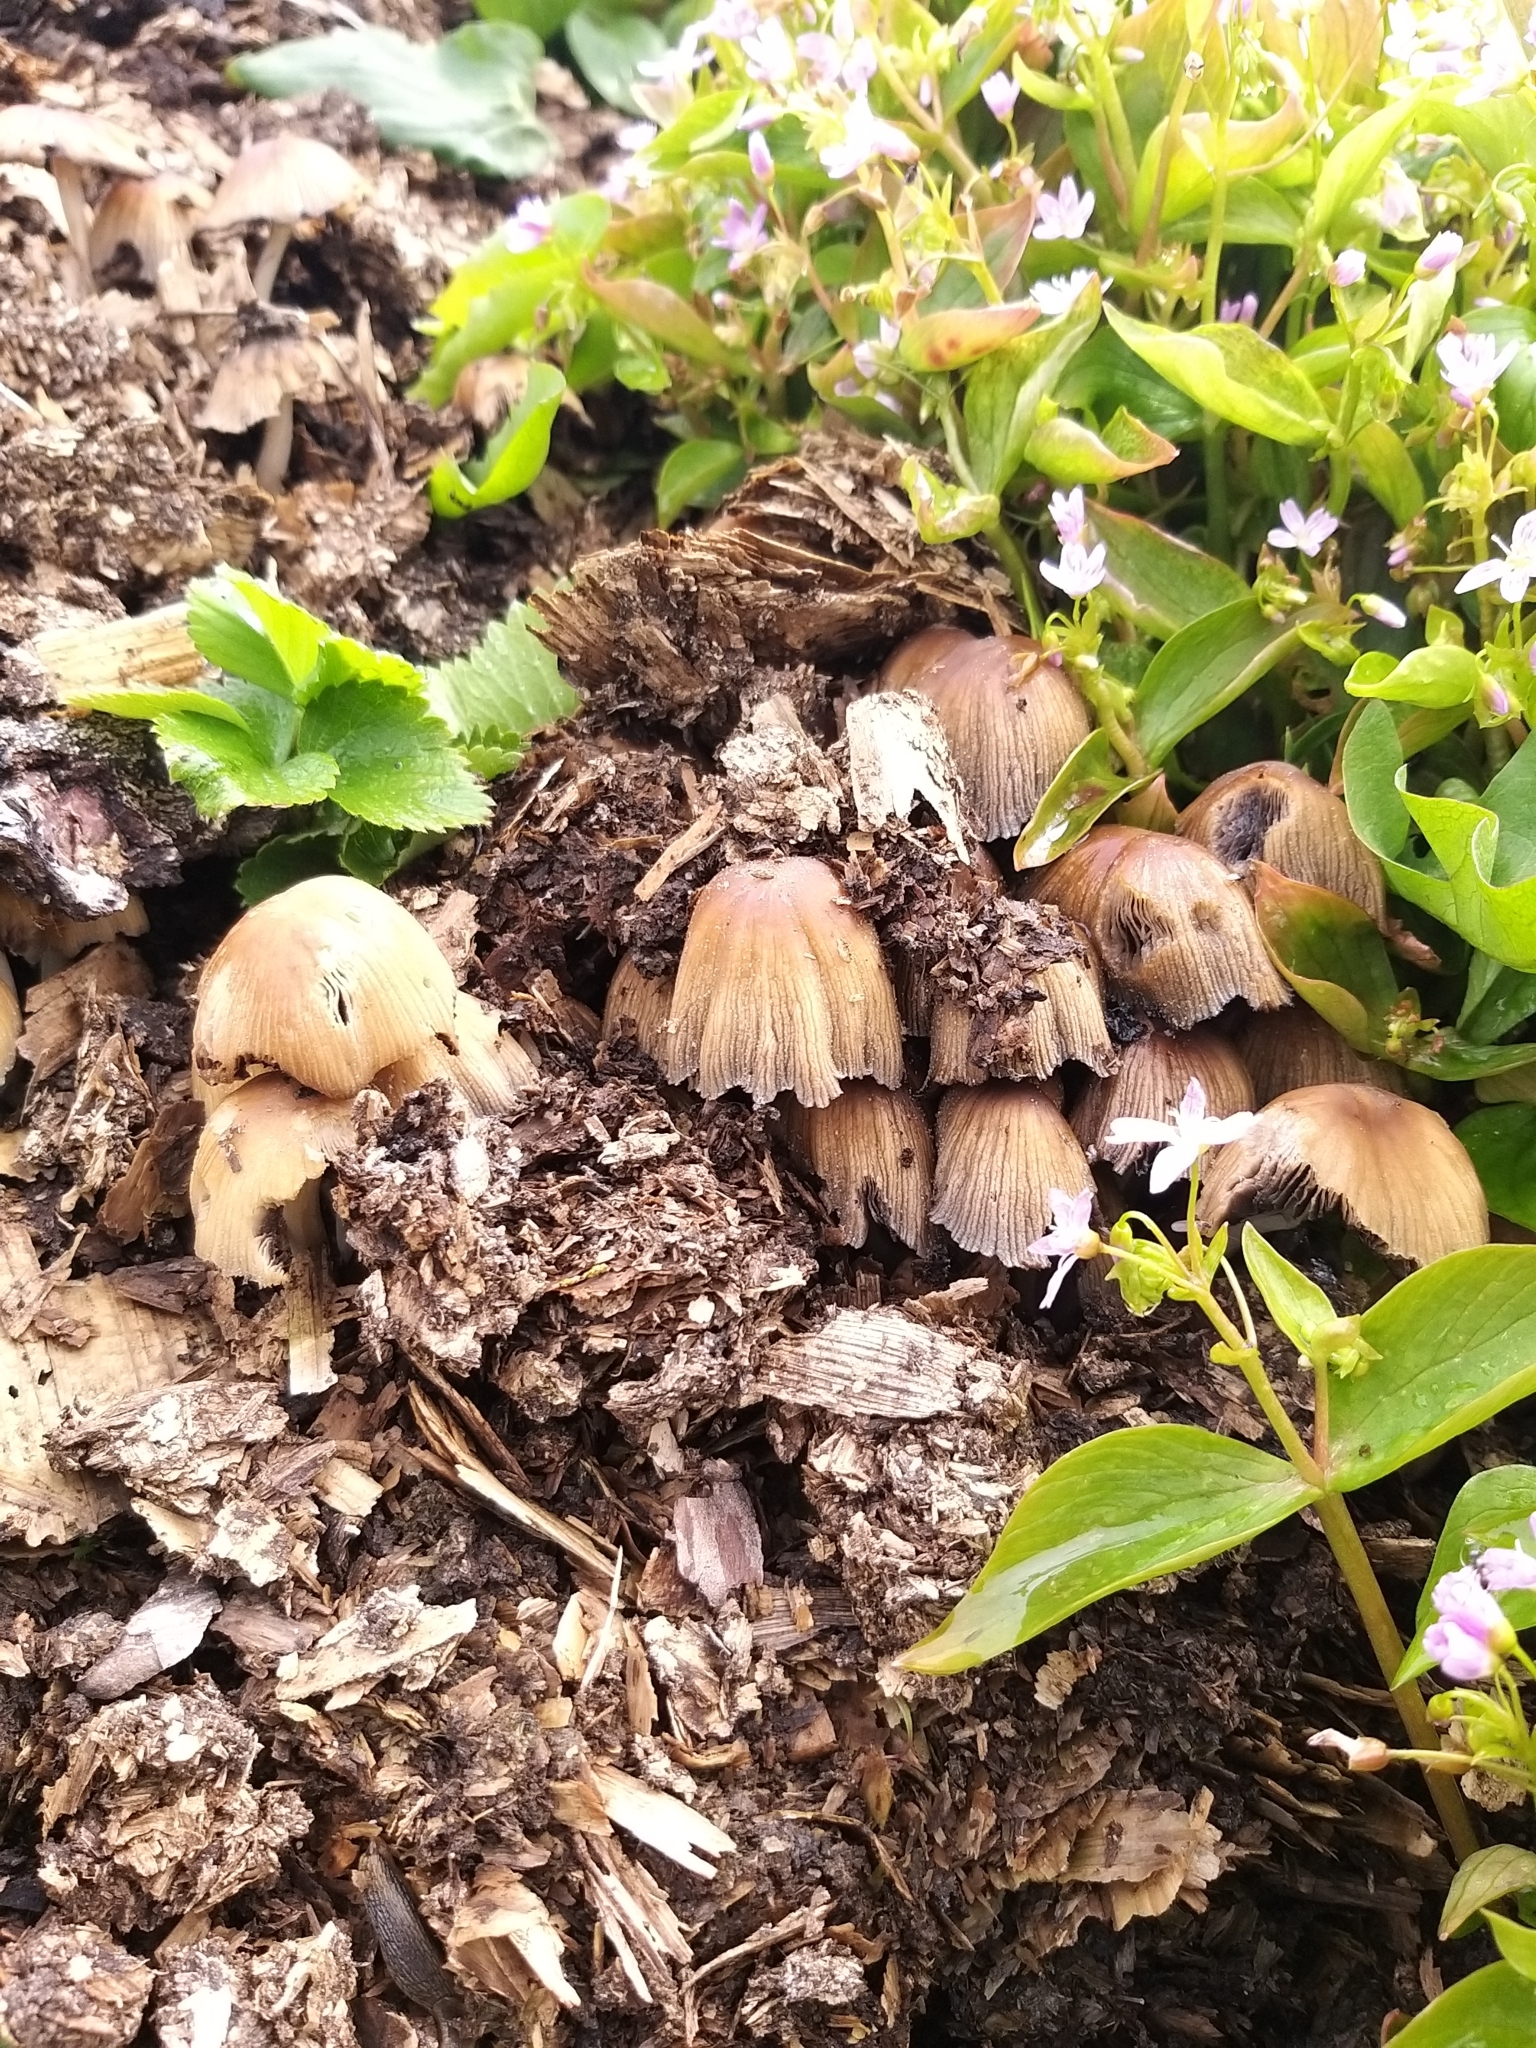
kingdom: Fungi
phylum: Basidiomycota
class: Agaricomycetes
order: Agaricales
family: Psathyrellaceae
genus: Coprinellus
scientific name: Coprinellus micaceus
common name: Glistening ink-cap
